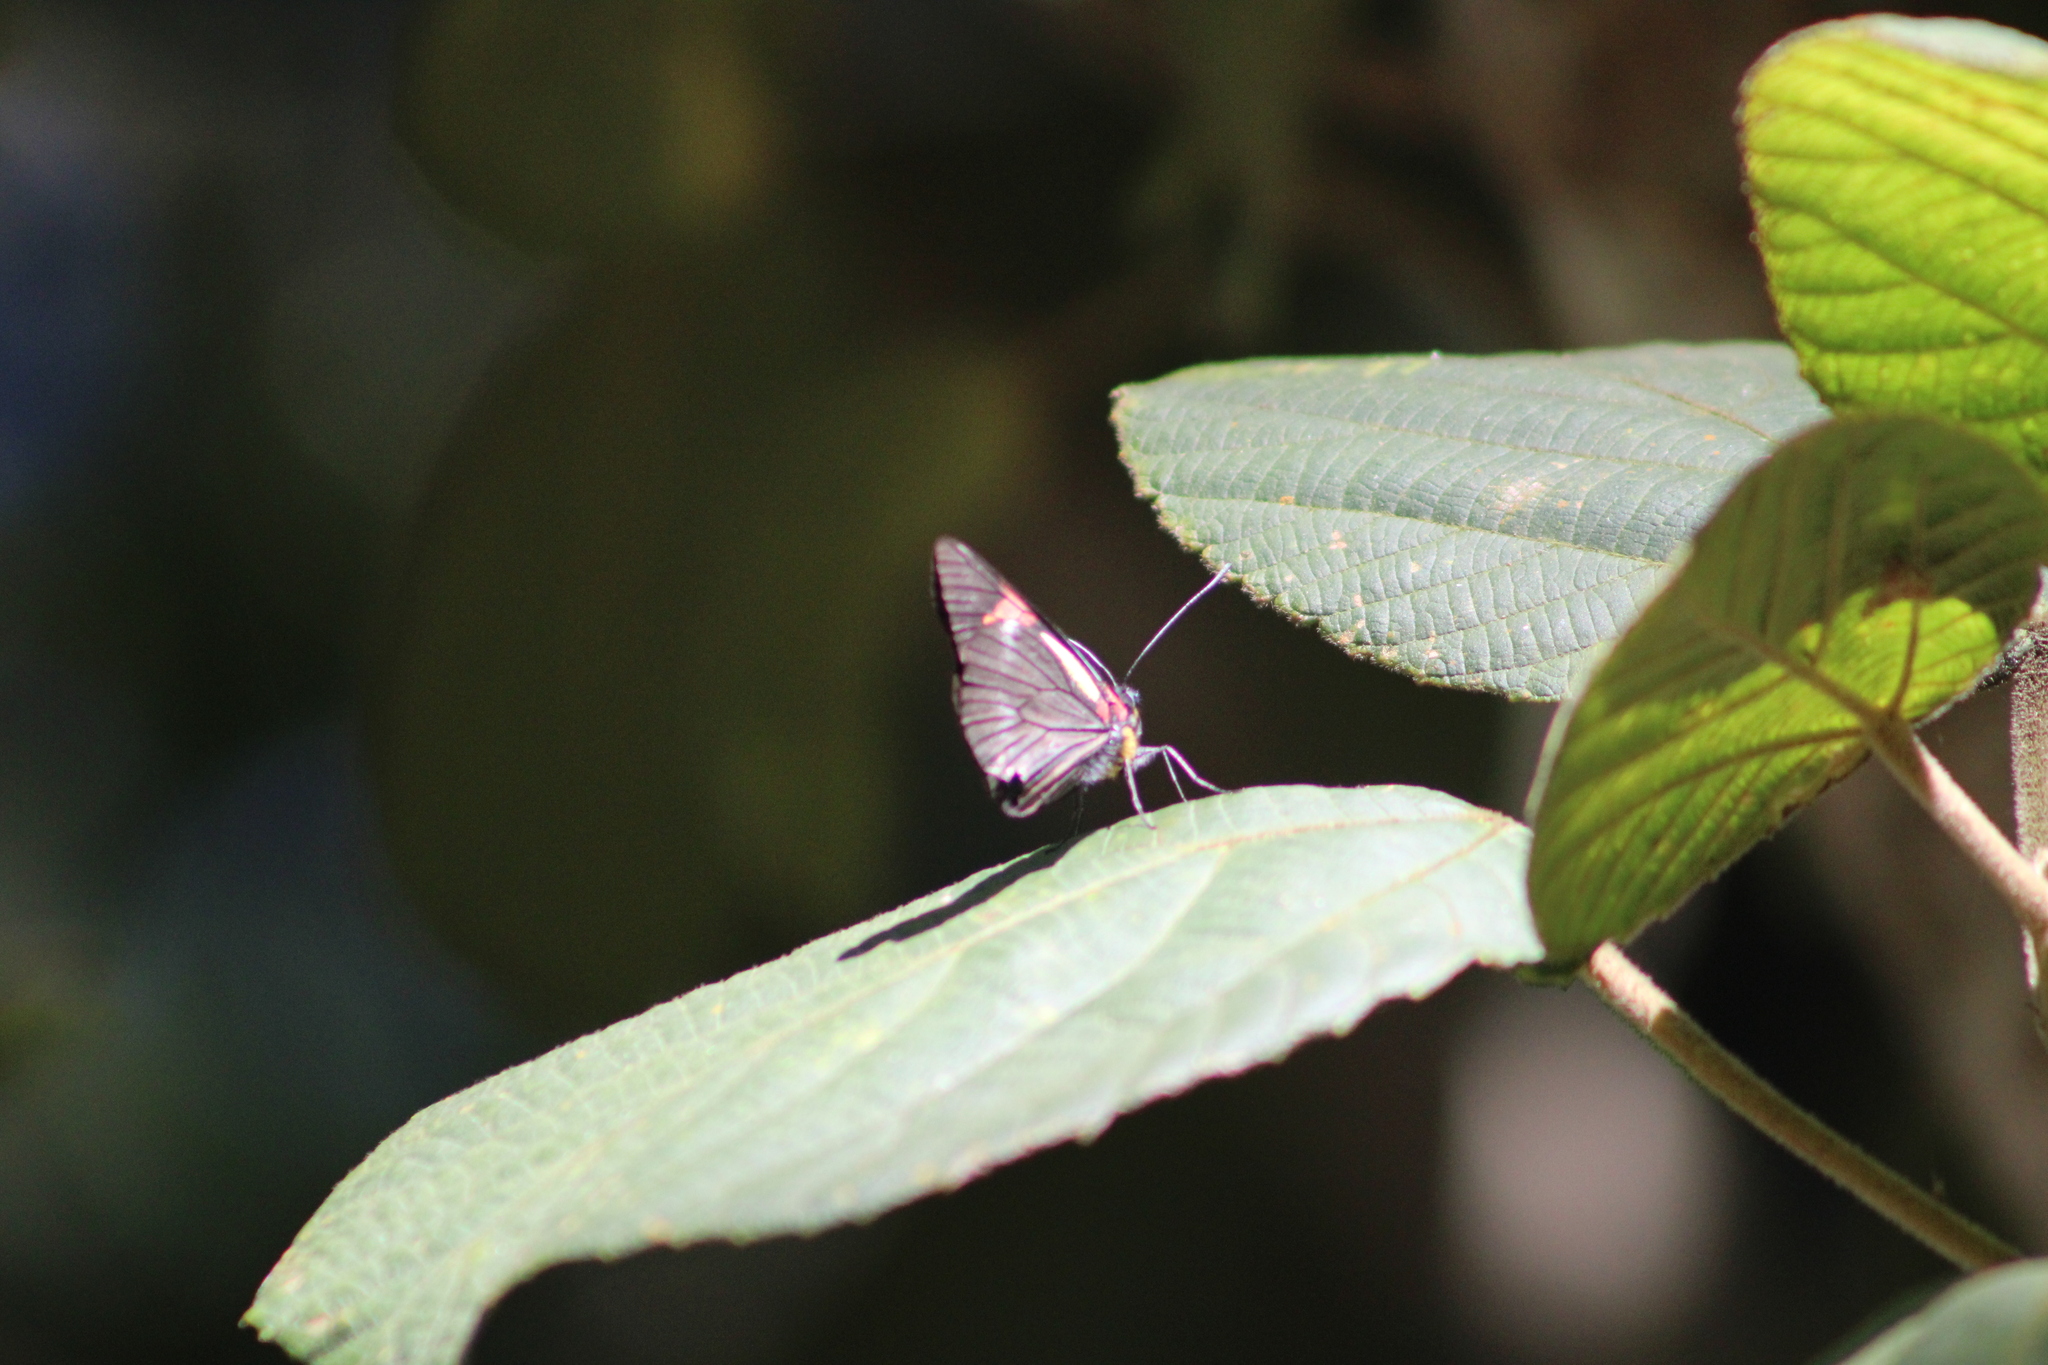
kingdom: Animalia
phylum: Arthropoda
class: Insecta
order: Lepidoptera
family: Pieridae
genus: Pereute
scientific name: Pereute swainsoni
